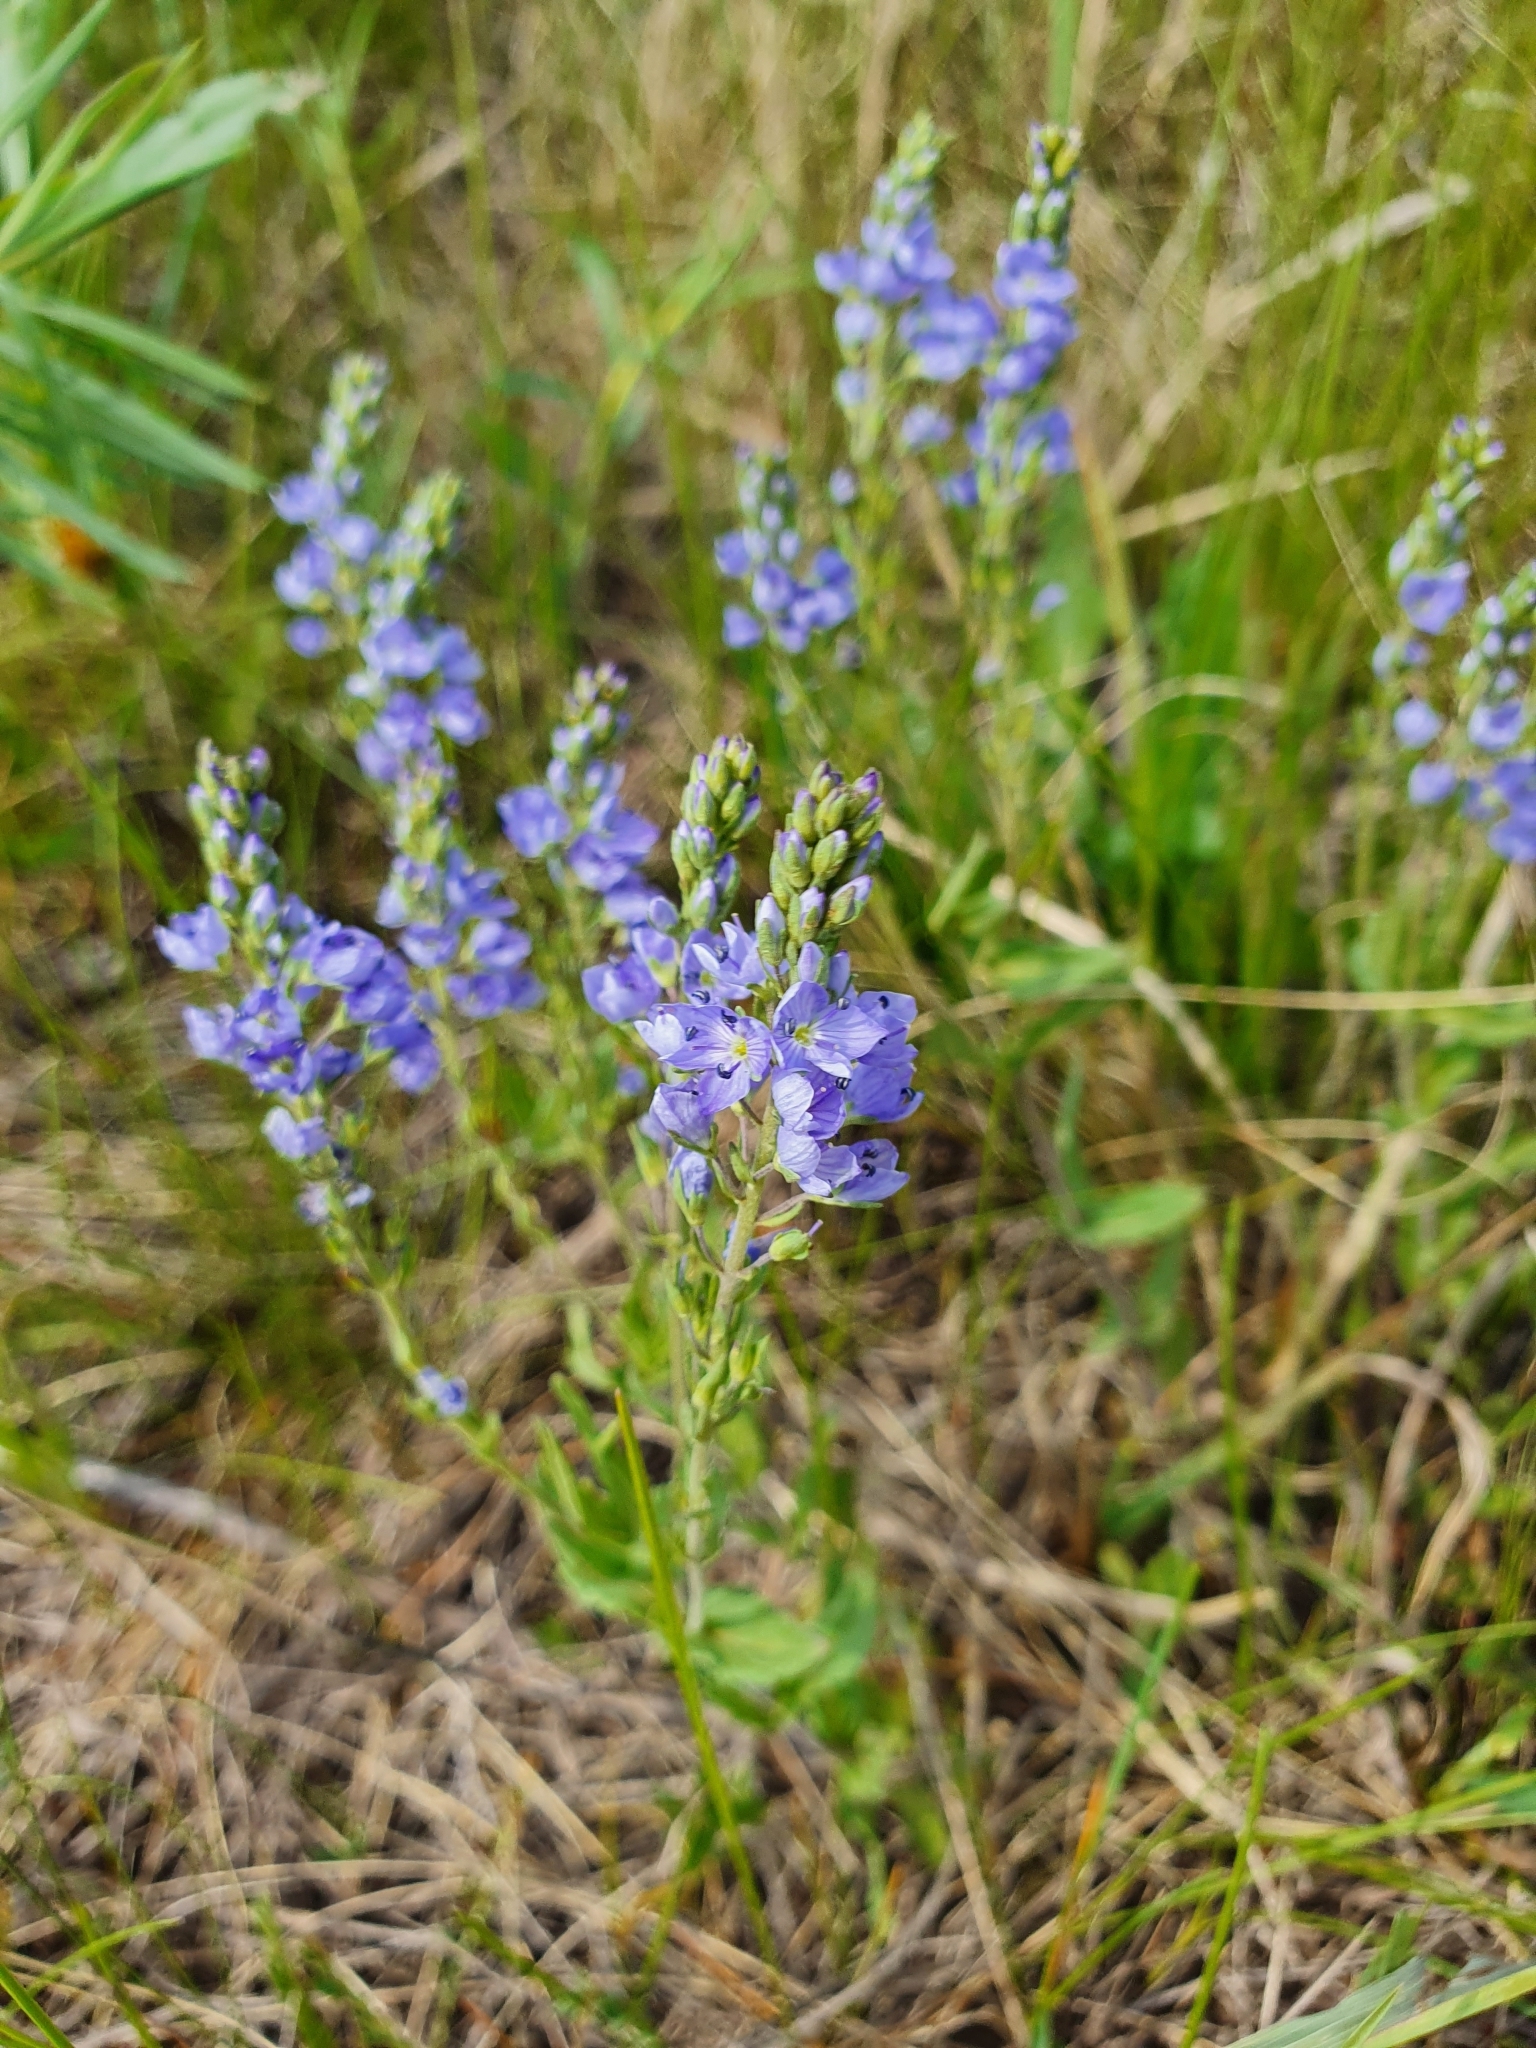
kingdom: Plantae
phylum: Tracheophyta
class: Magnoliopsida
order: Lamiales
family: Plantaginaceae
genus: Veronica
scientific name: Veronica prostrata
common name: Prostrate speedwell
